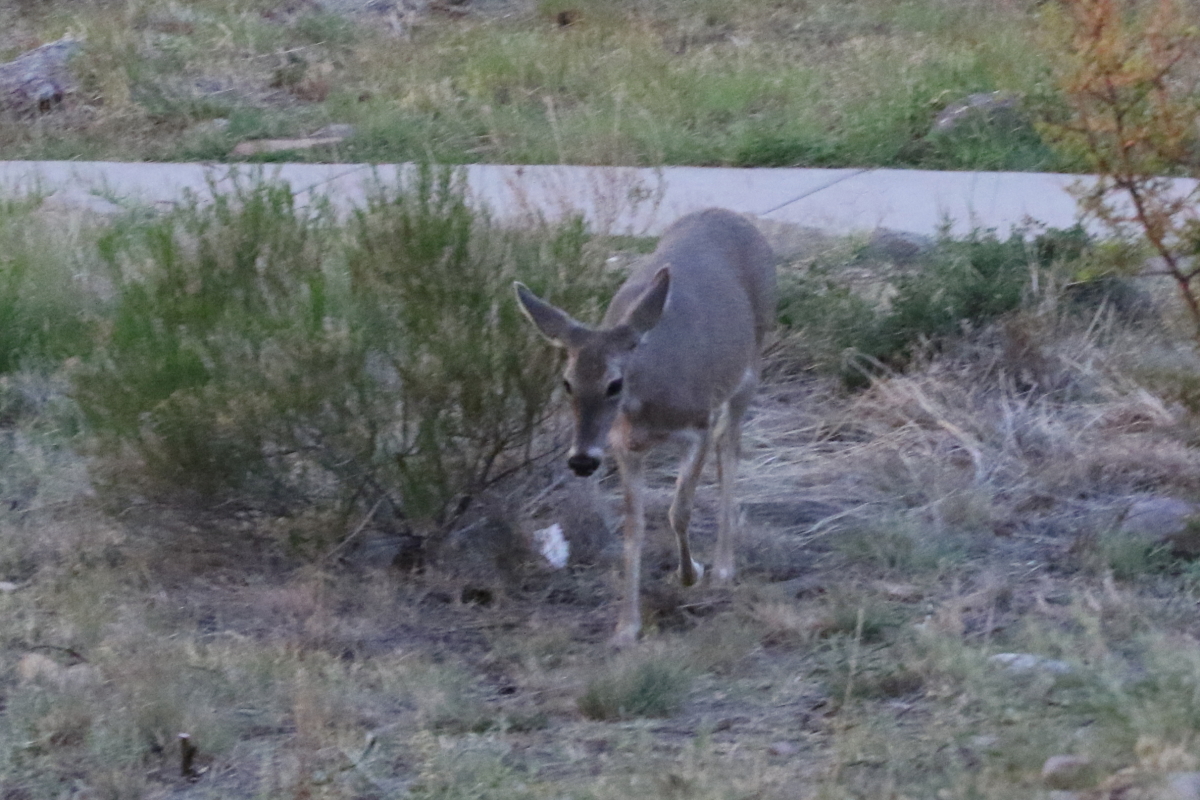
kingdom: Animalia
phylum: Chordata
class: Mammalia
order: Artiodactyla
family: Cervidae
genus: Odocoileus
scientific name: Odocoileus virginianus
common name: White-tailed deer
